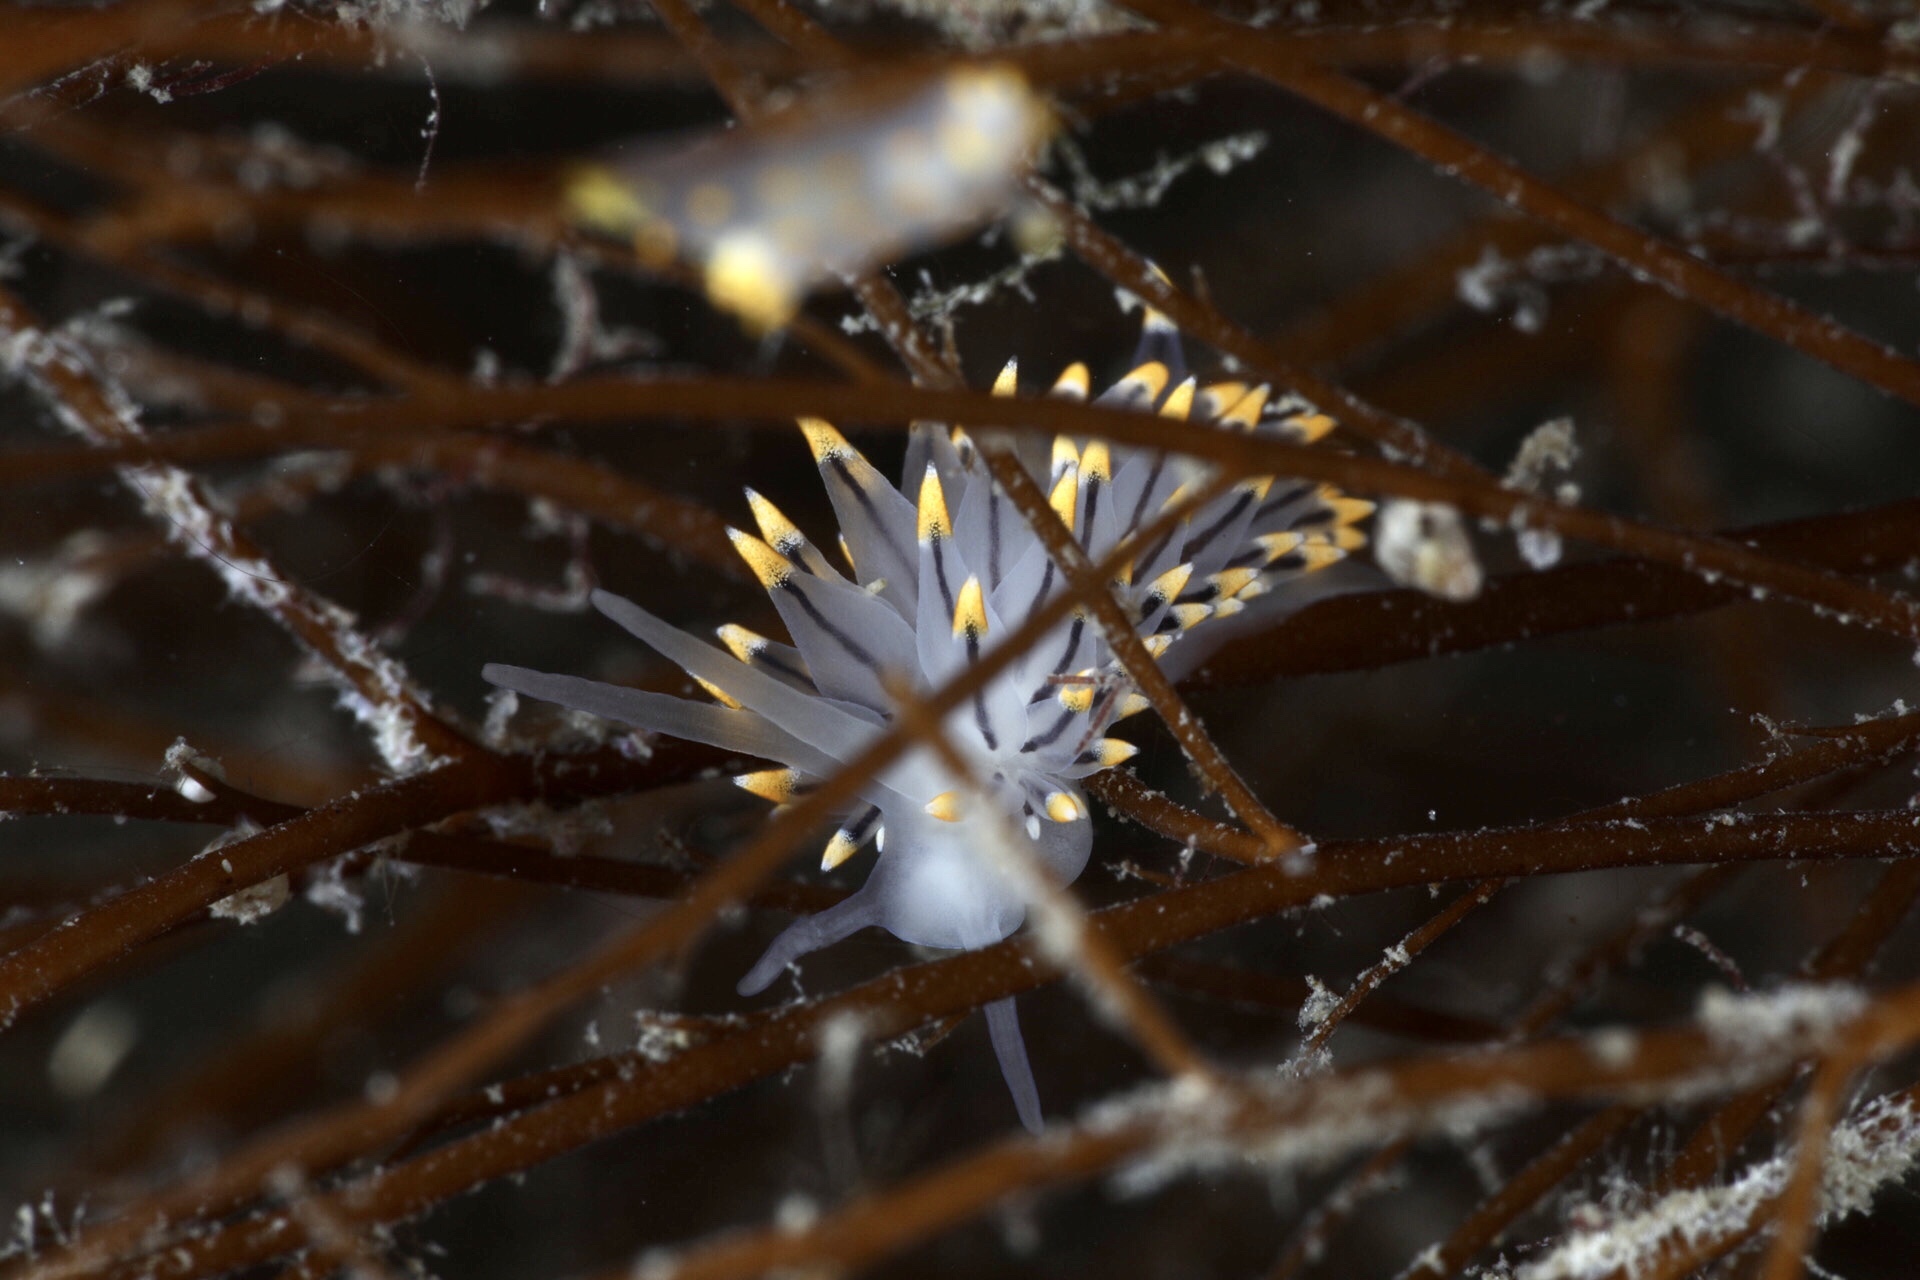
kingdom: Animalia
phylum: Mollusca
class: Gastropoda
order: Nudibranchia
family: Eubranchidae
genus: Eubranchus
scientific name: Eubranchus tricolor
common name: Painted balloon aeolis
